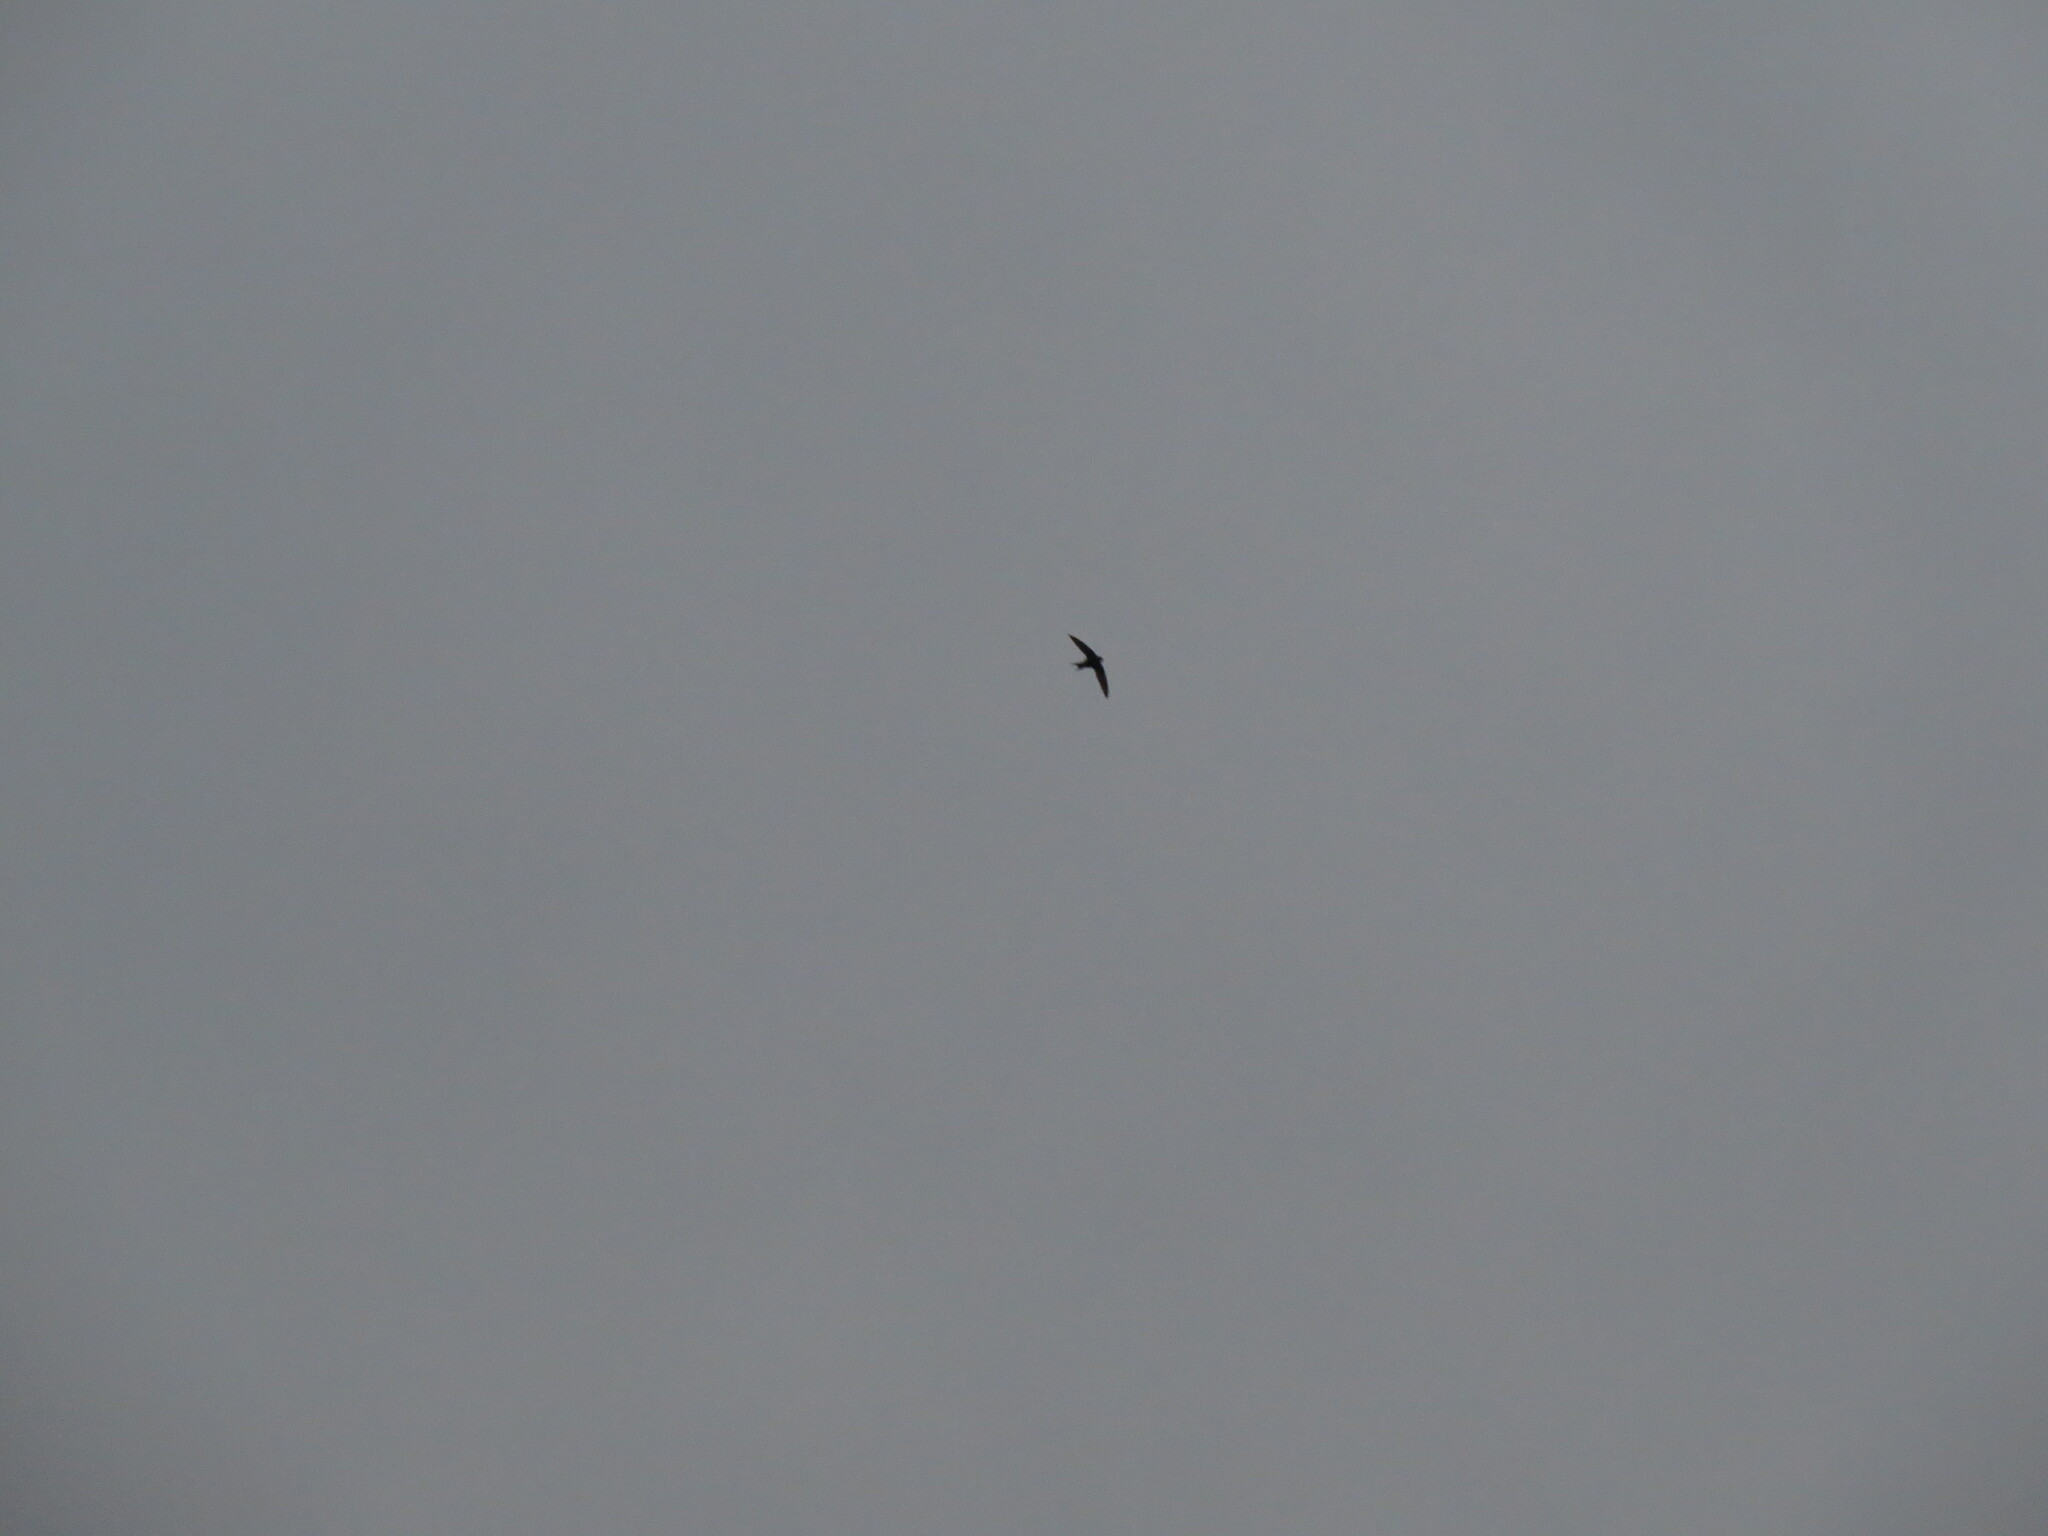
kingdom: Animalia
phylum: Chordata
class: Aves
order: Apodiformes
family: Apodidae
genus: Apus
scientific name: Apus apus
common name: Common swift
